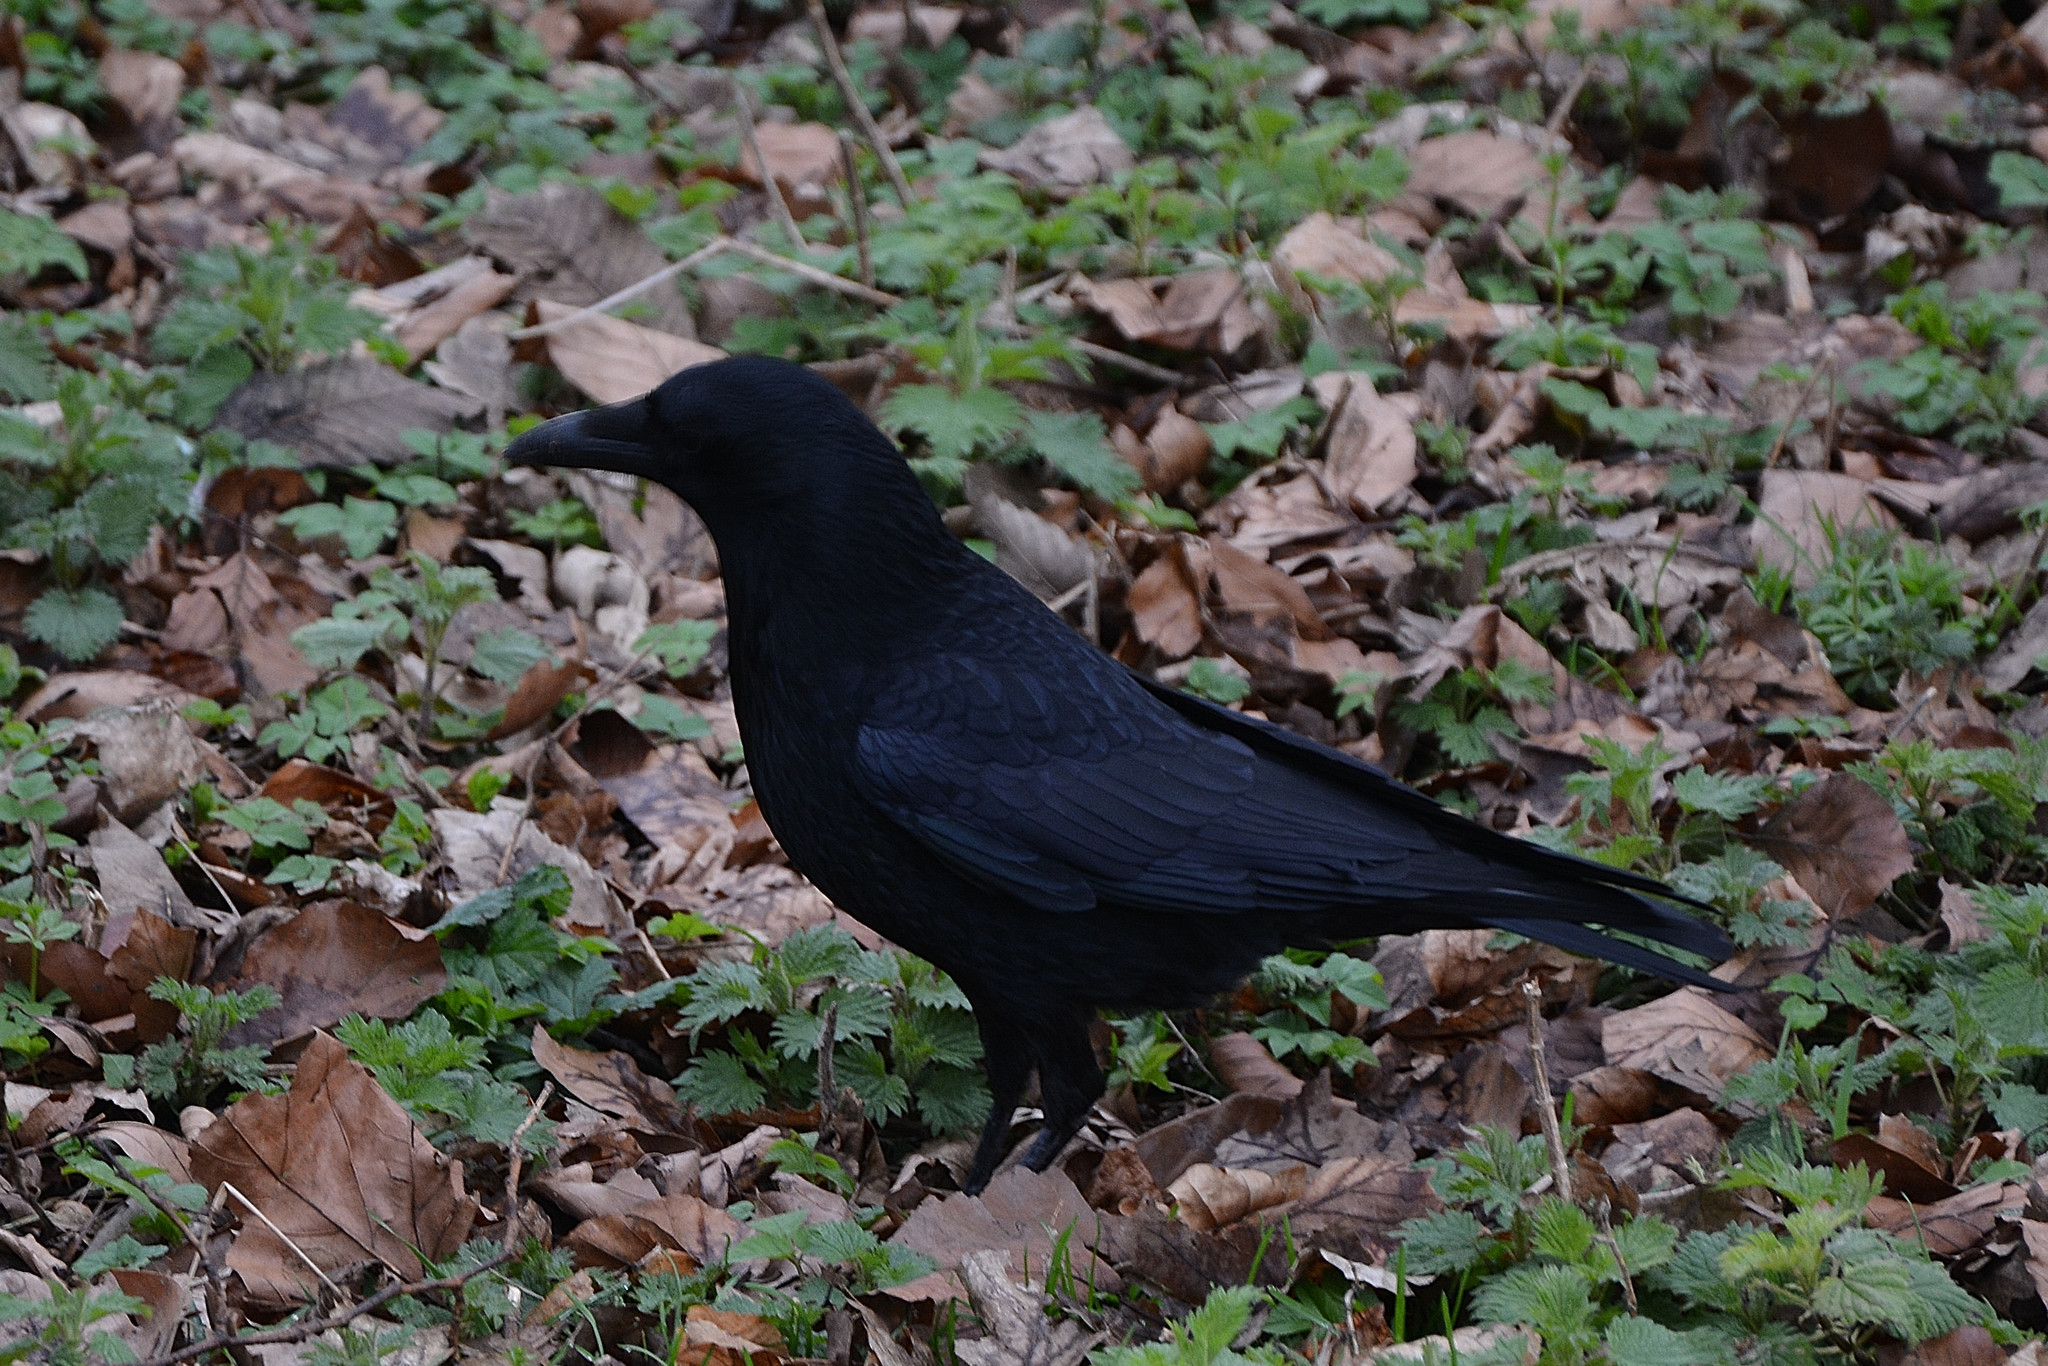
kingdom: Animalia
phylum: Chordata
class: Aves
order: Passeriformes
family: Corvidae
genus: Corvus
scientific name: Corvus corone
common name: Carrion crow
